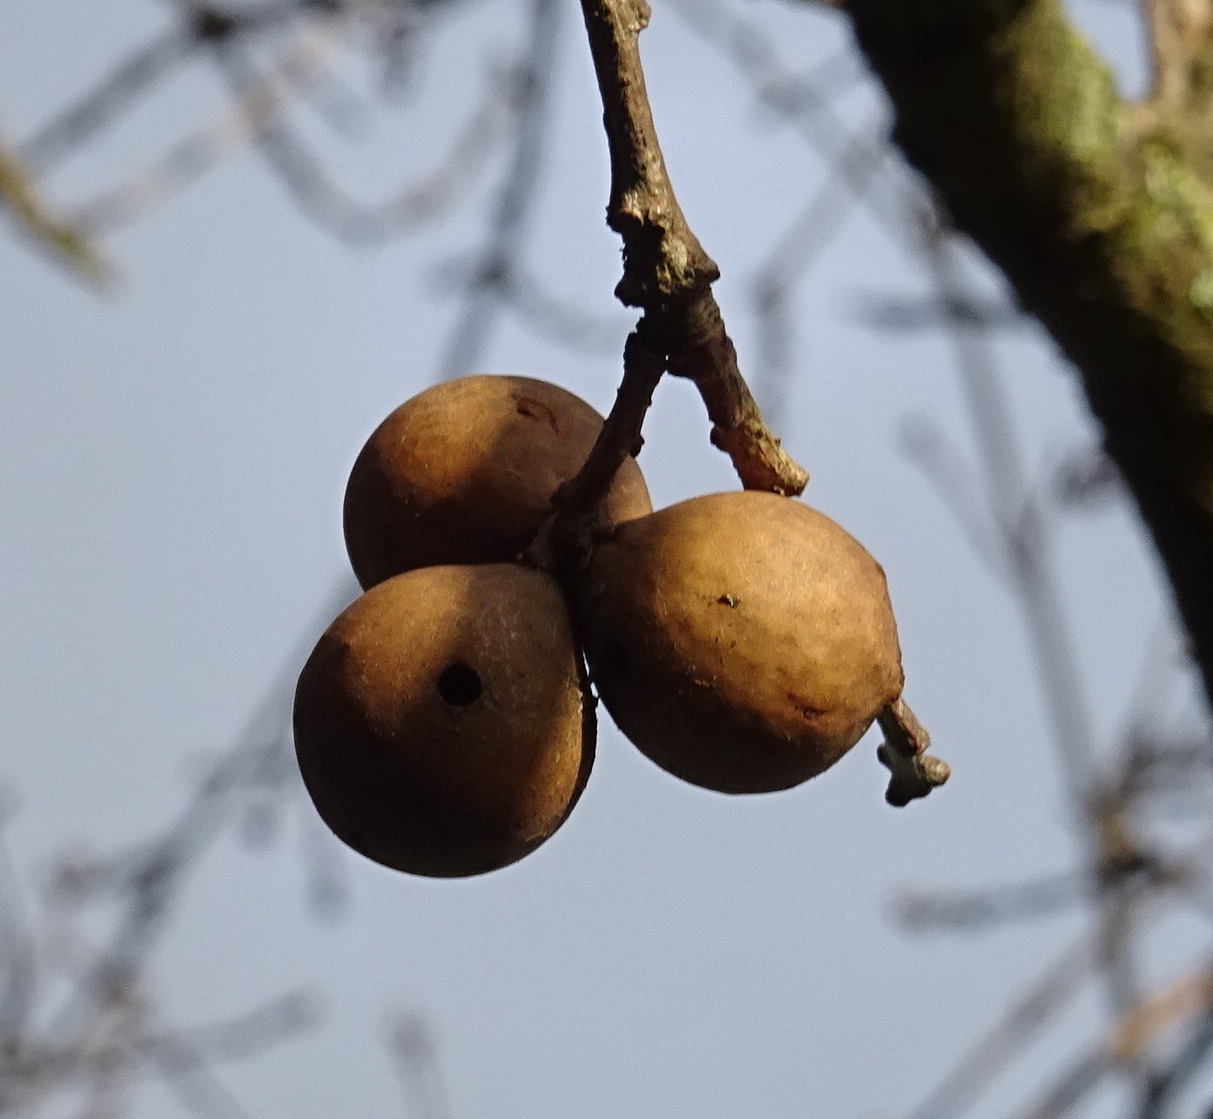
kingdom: Animalia
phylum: Arthropoda
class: Insecta
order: Hymenoptera
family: Cynipidae
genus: Andricus
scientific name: Andricus kollari
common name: Marble gall
